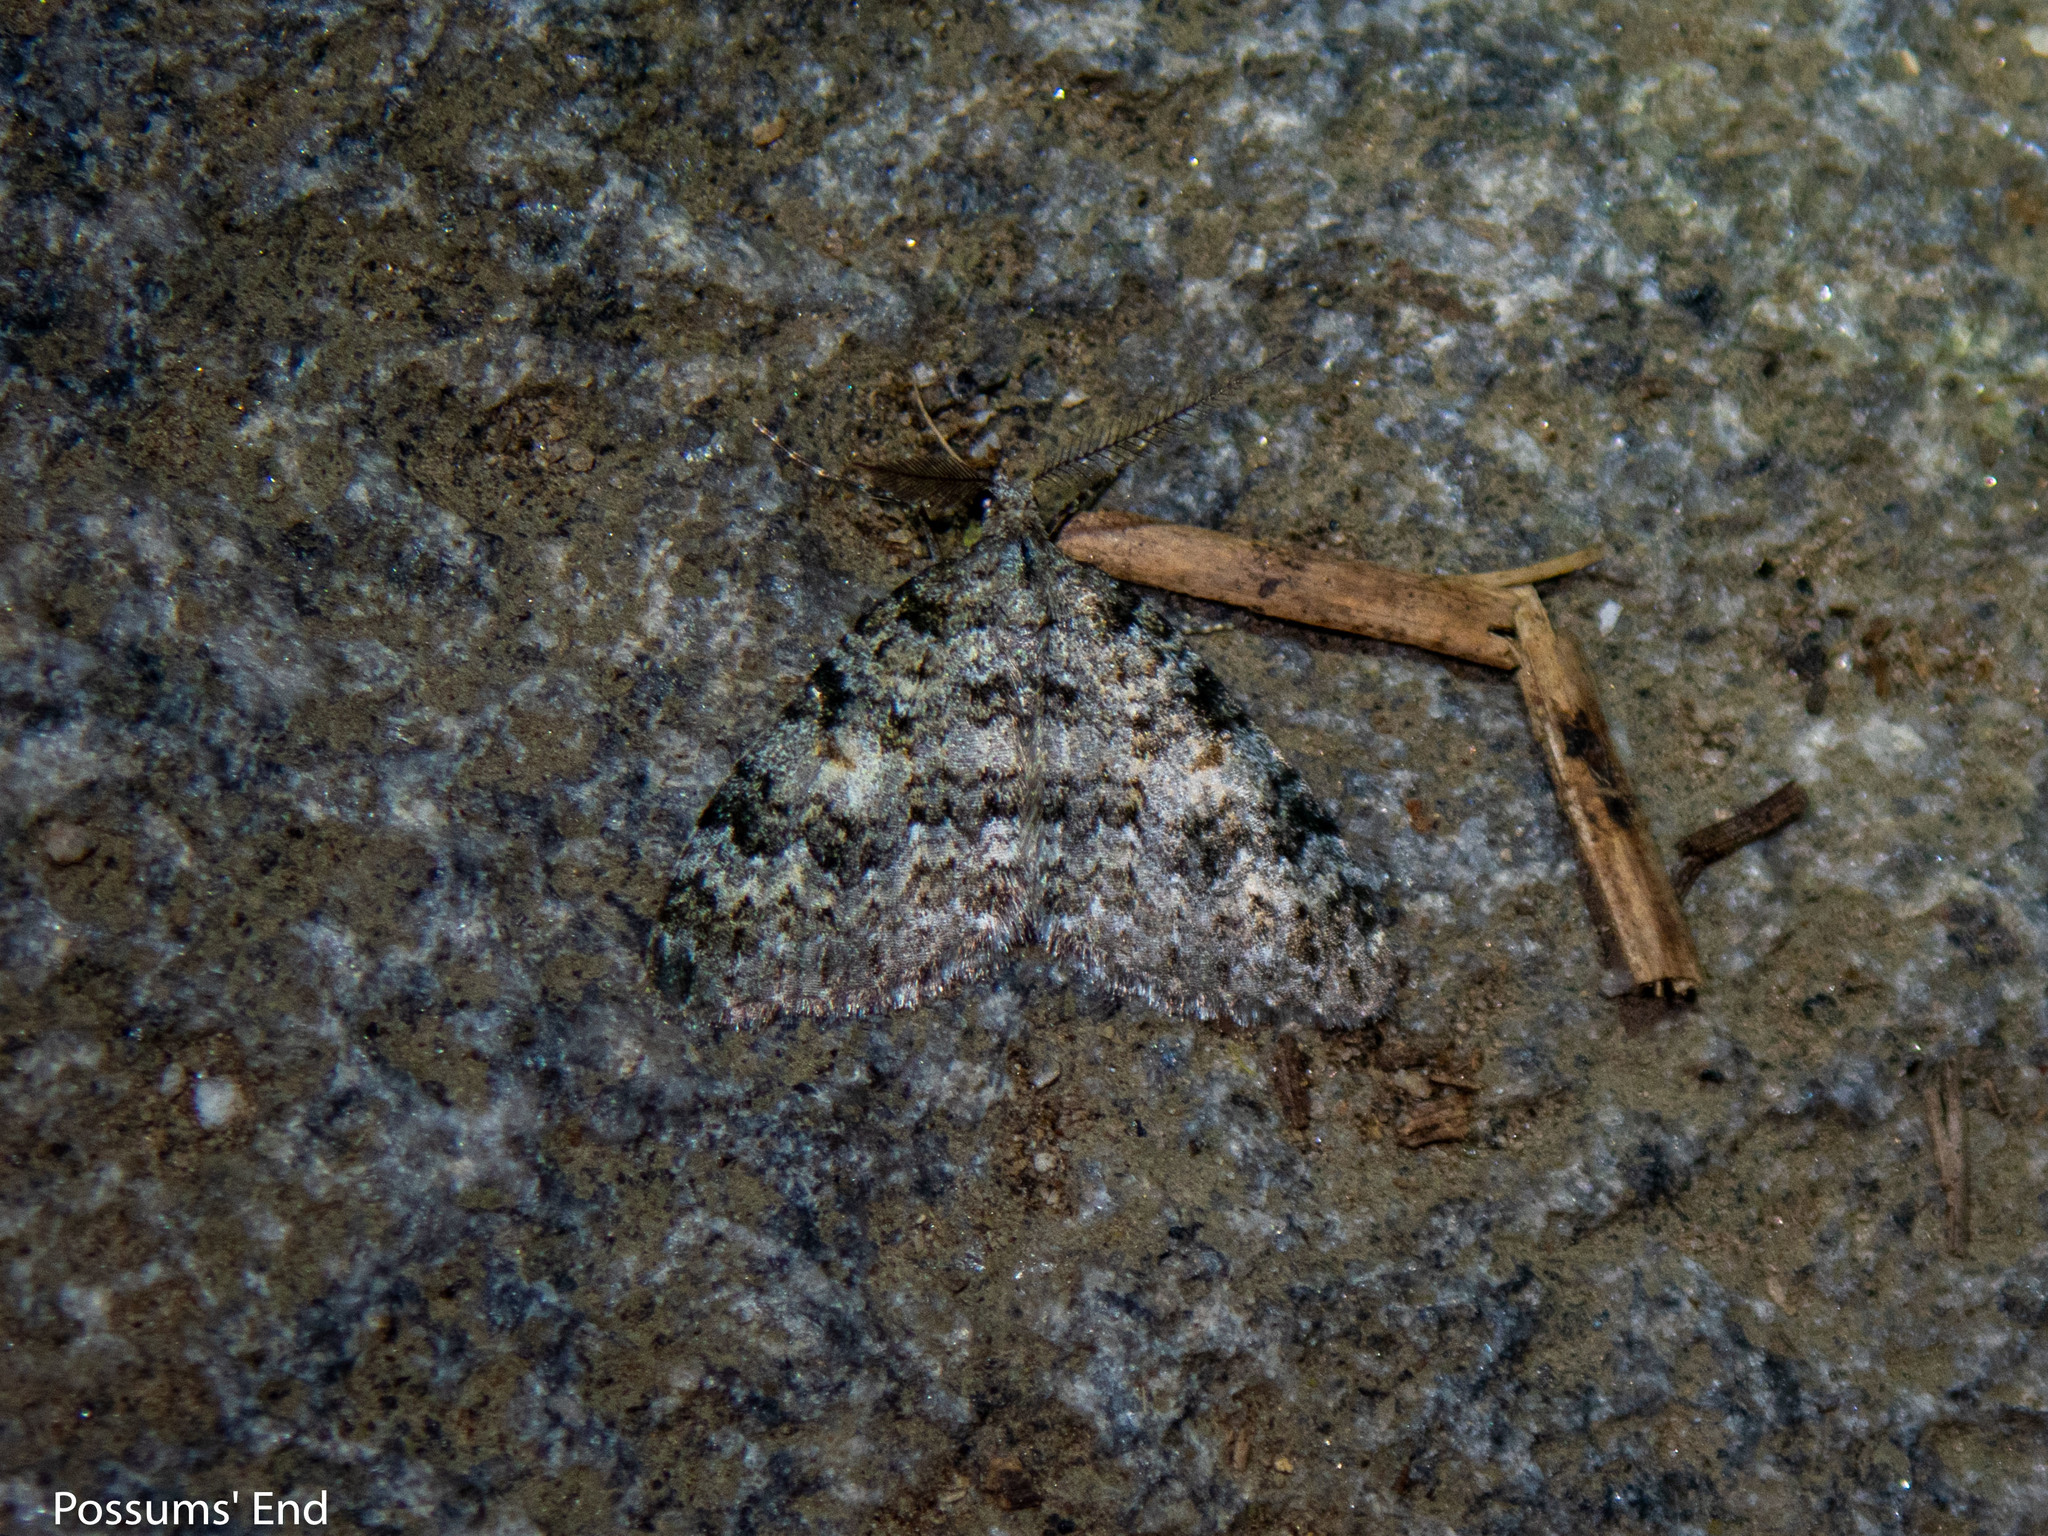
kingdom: Animalia
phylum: Arthropoda
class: Insecta
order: Lepidoptera
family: Geometridae
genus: Helastia
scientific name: Helastia plumbea
